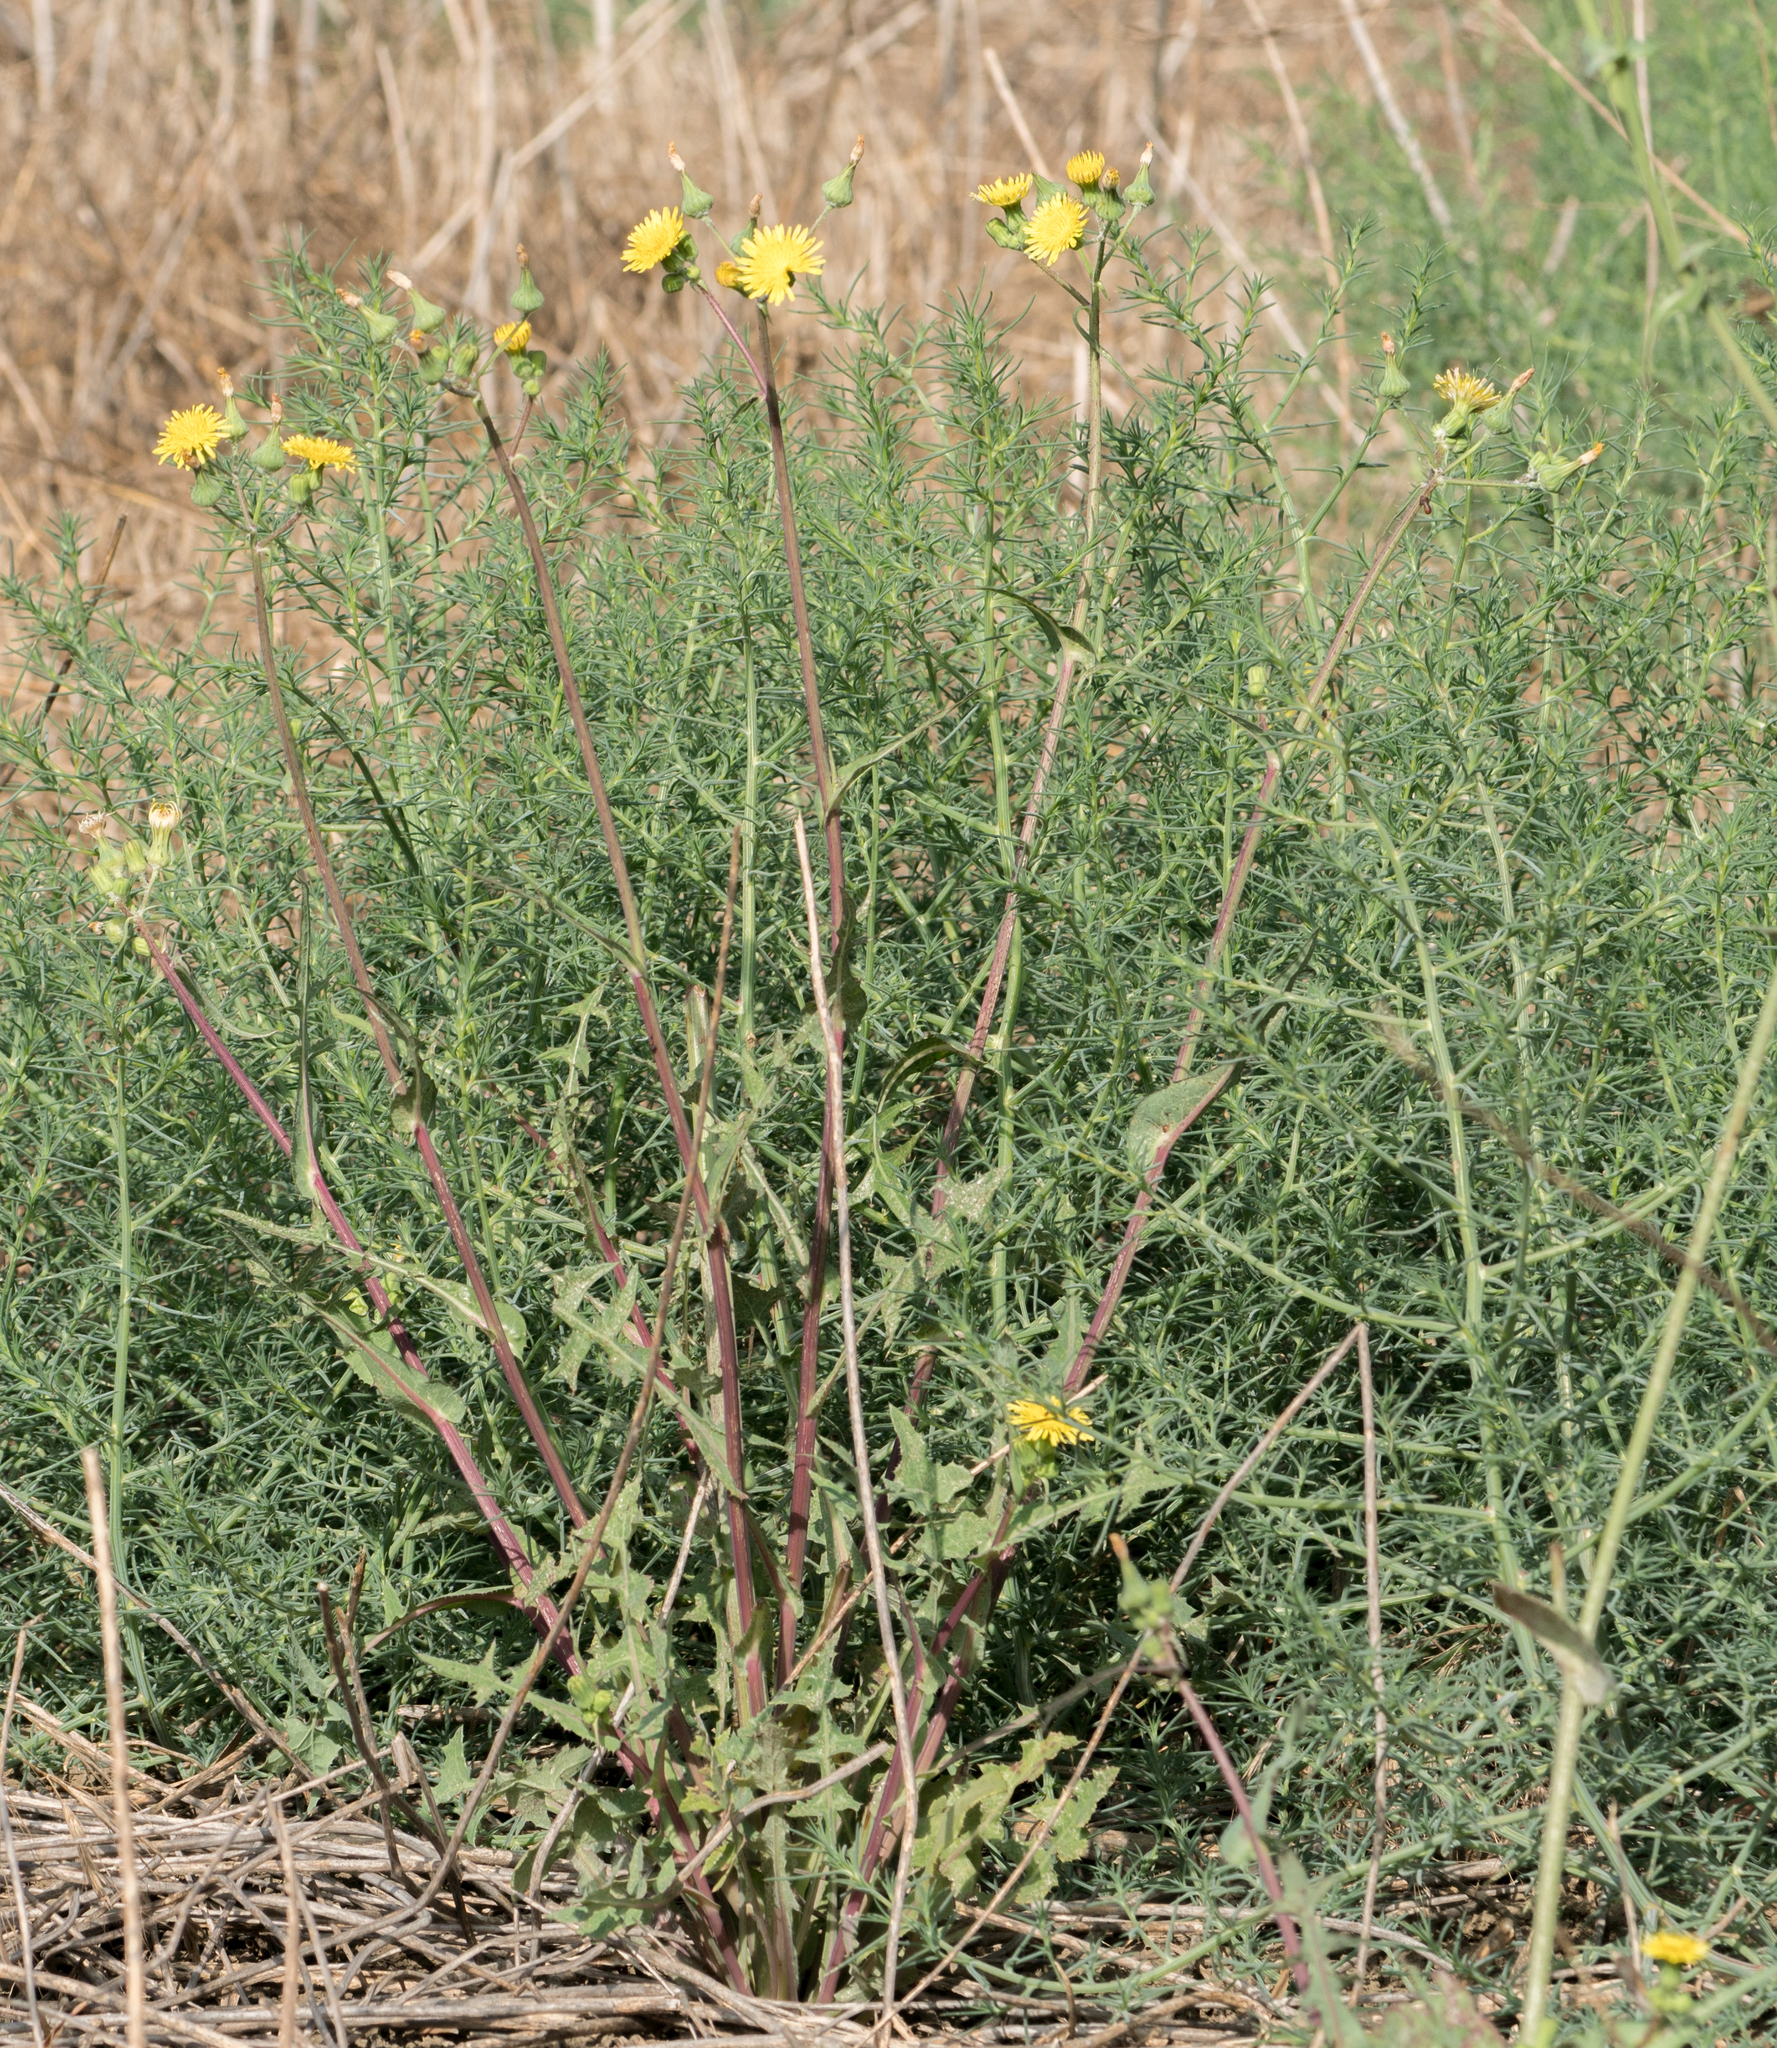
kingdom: Plantae
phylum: Tracheophyta
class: Magnoliopsida
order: Asterales
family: Asteraceae
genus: Sonchus
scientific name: Sonchus oleraceus
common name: Common sowthistle
